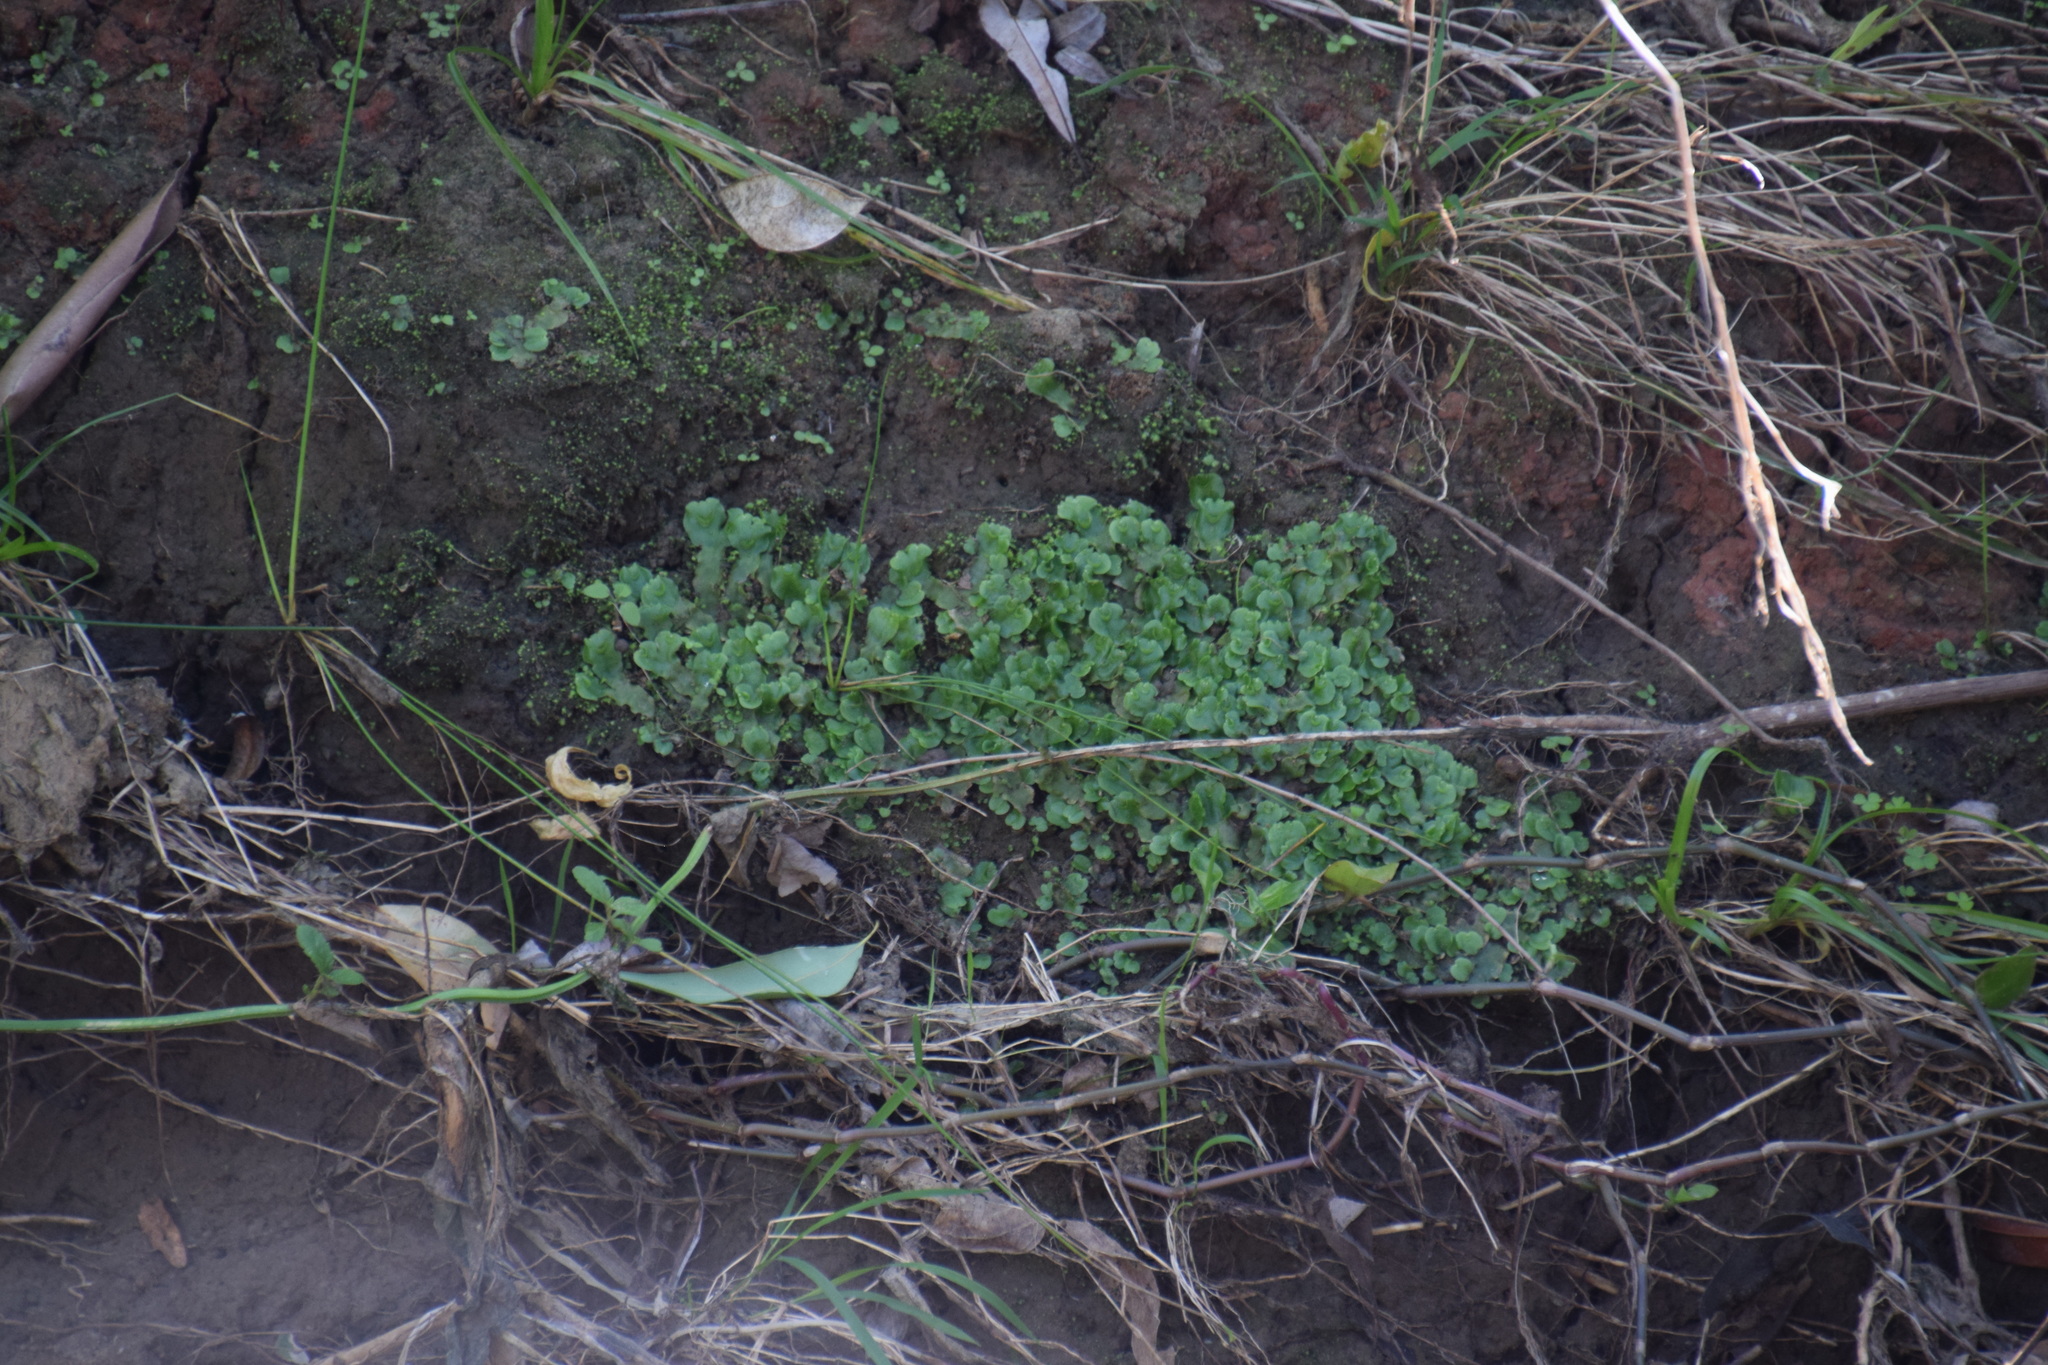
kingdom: Plantae
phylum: Marchantiophyta
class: Marchantiopsida
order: Lunulariales
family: Lunulariaceae
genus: Lunularia
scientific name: Lunularia cruciata
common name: Crescent-cup liverwort
